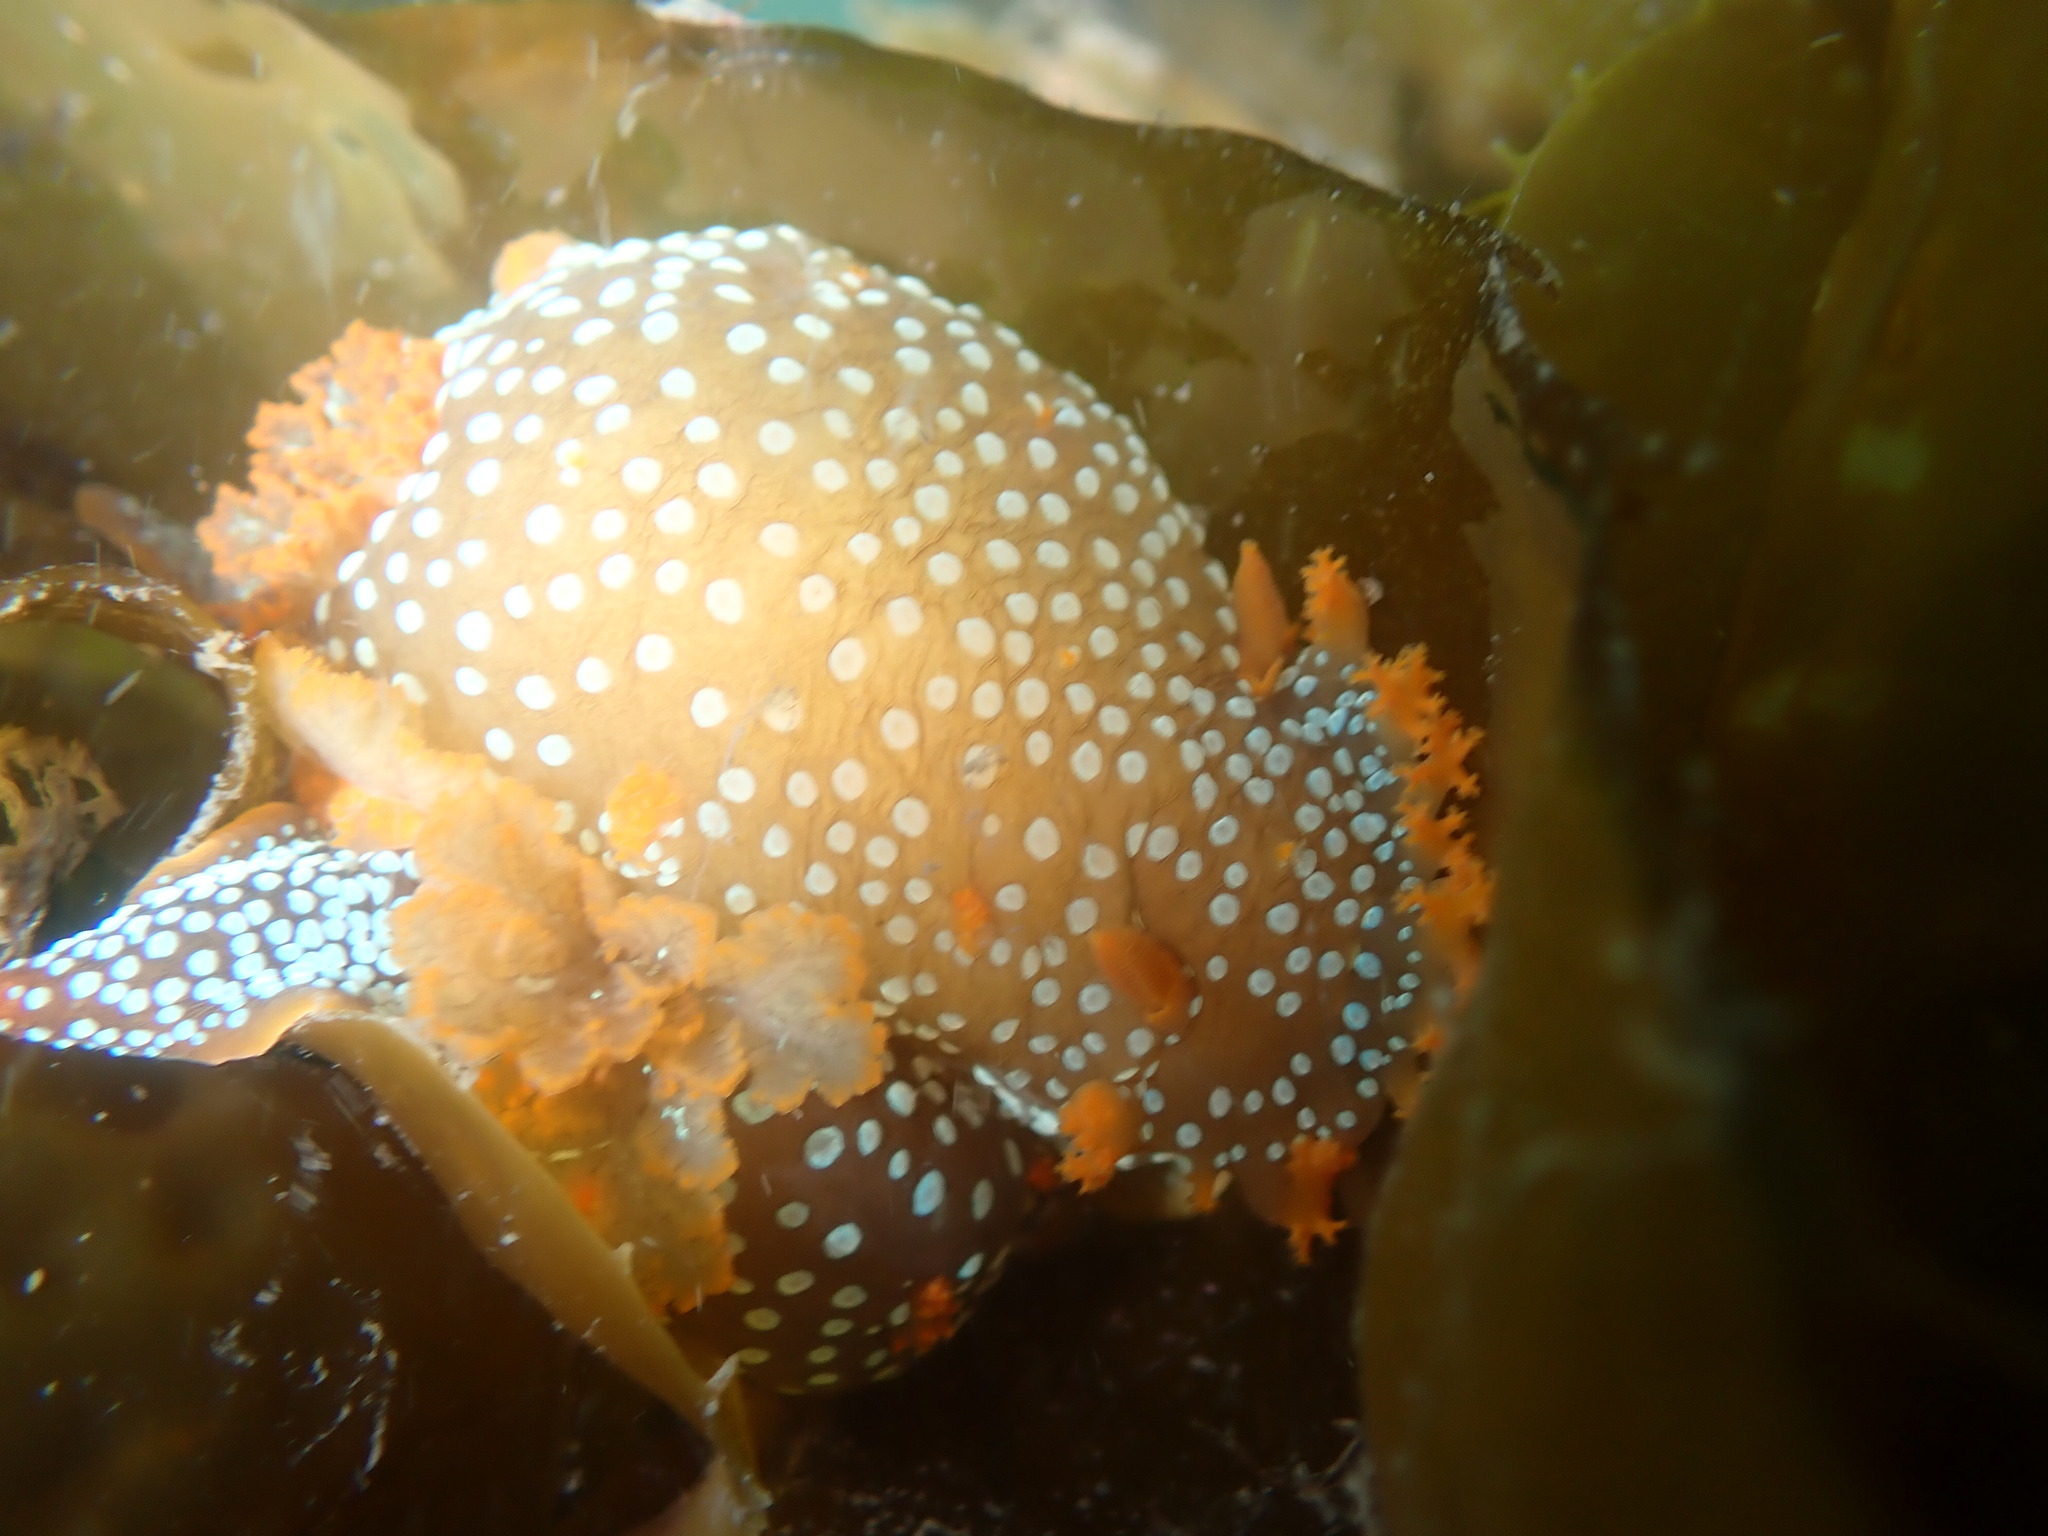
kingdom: Animalia
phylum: Mollusca
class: Gastropoda
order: Nudibranchia
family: Polyceridae
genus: Triopha
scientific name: Triopha maculata
